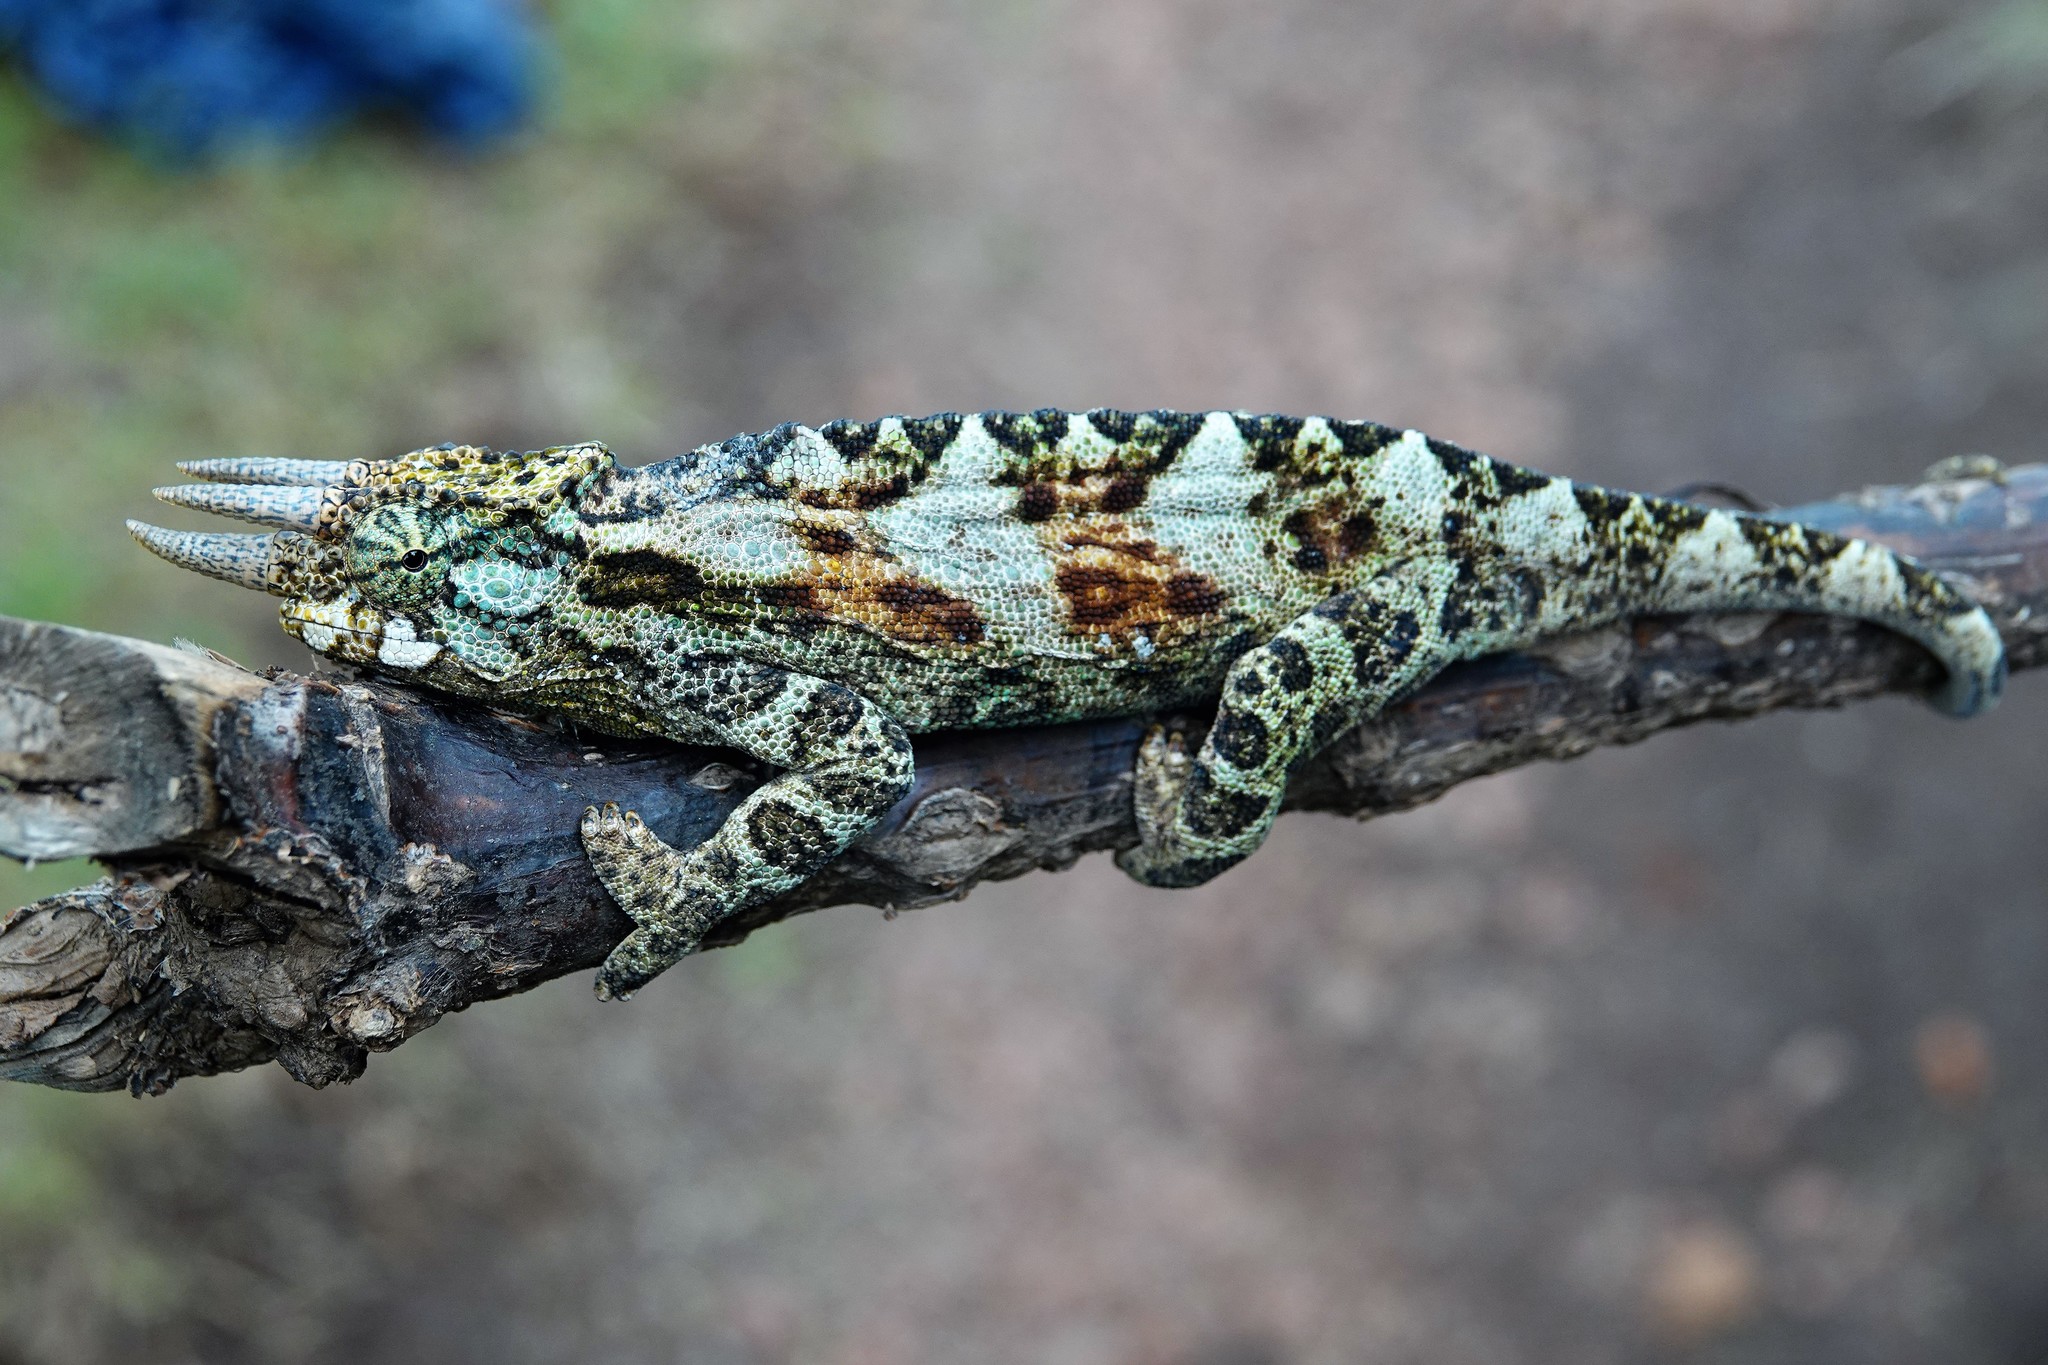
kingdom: Animalia
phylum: Chordata
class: Squamata
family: Chamaeleonidae
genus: Trioceros
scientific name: Trioceros johnstoni
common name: Johnston's chameleon
